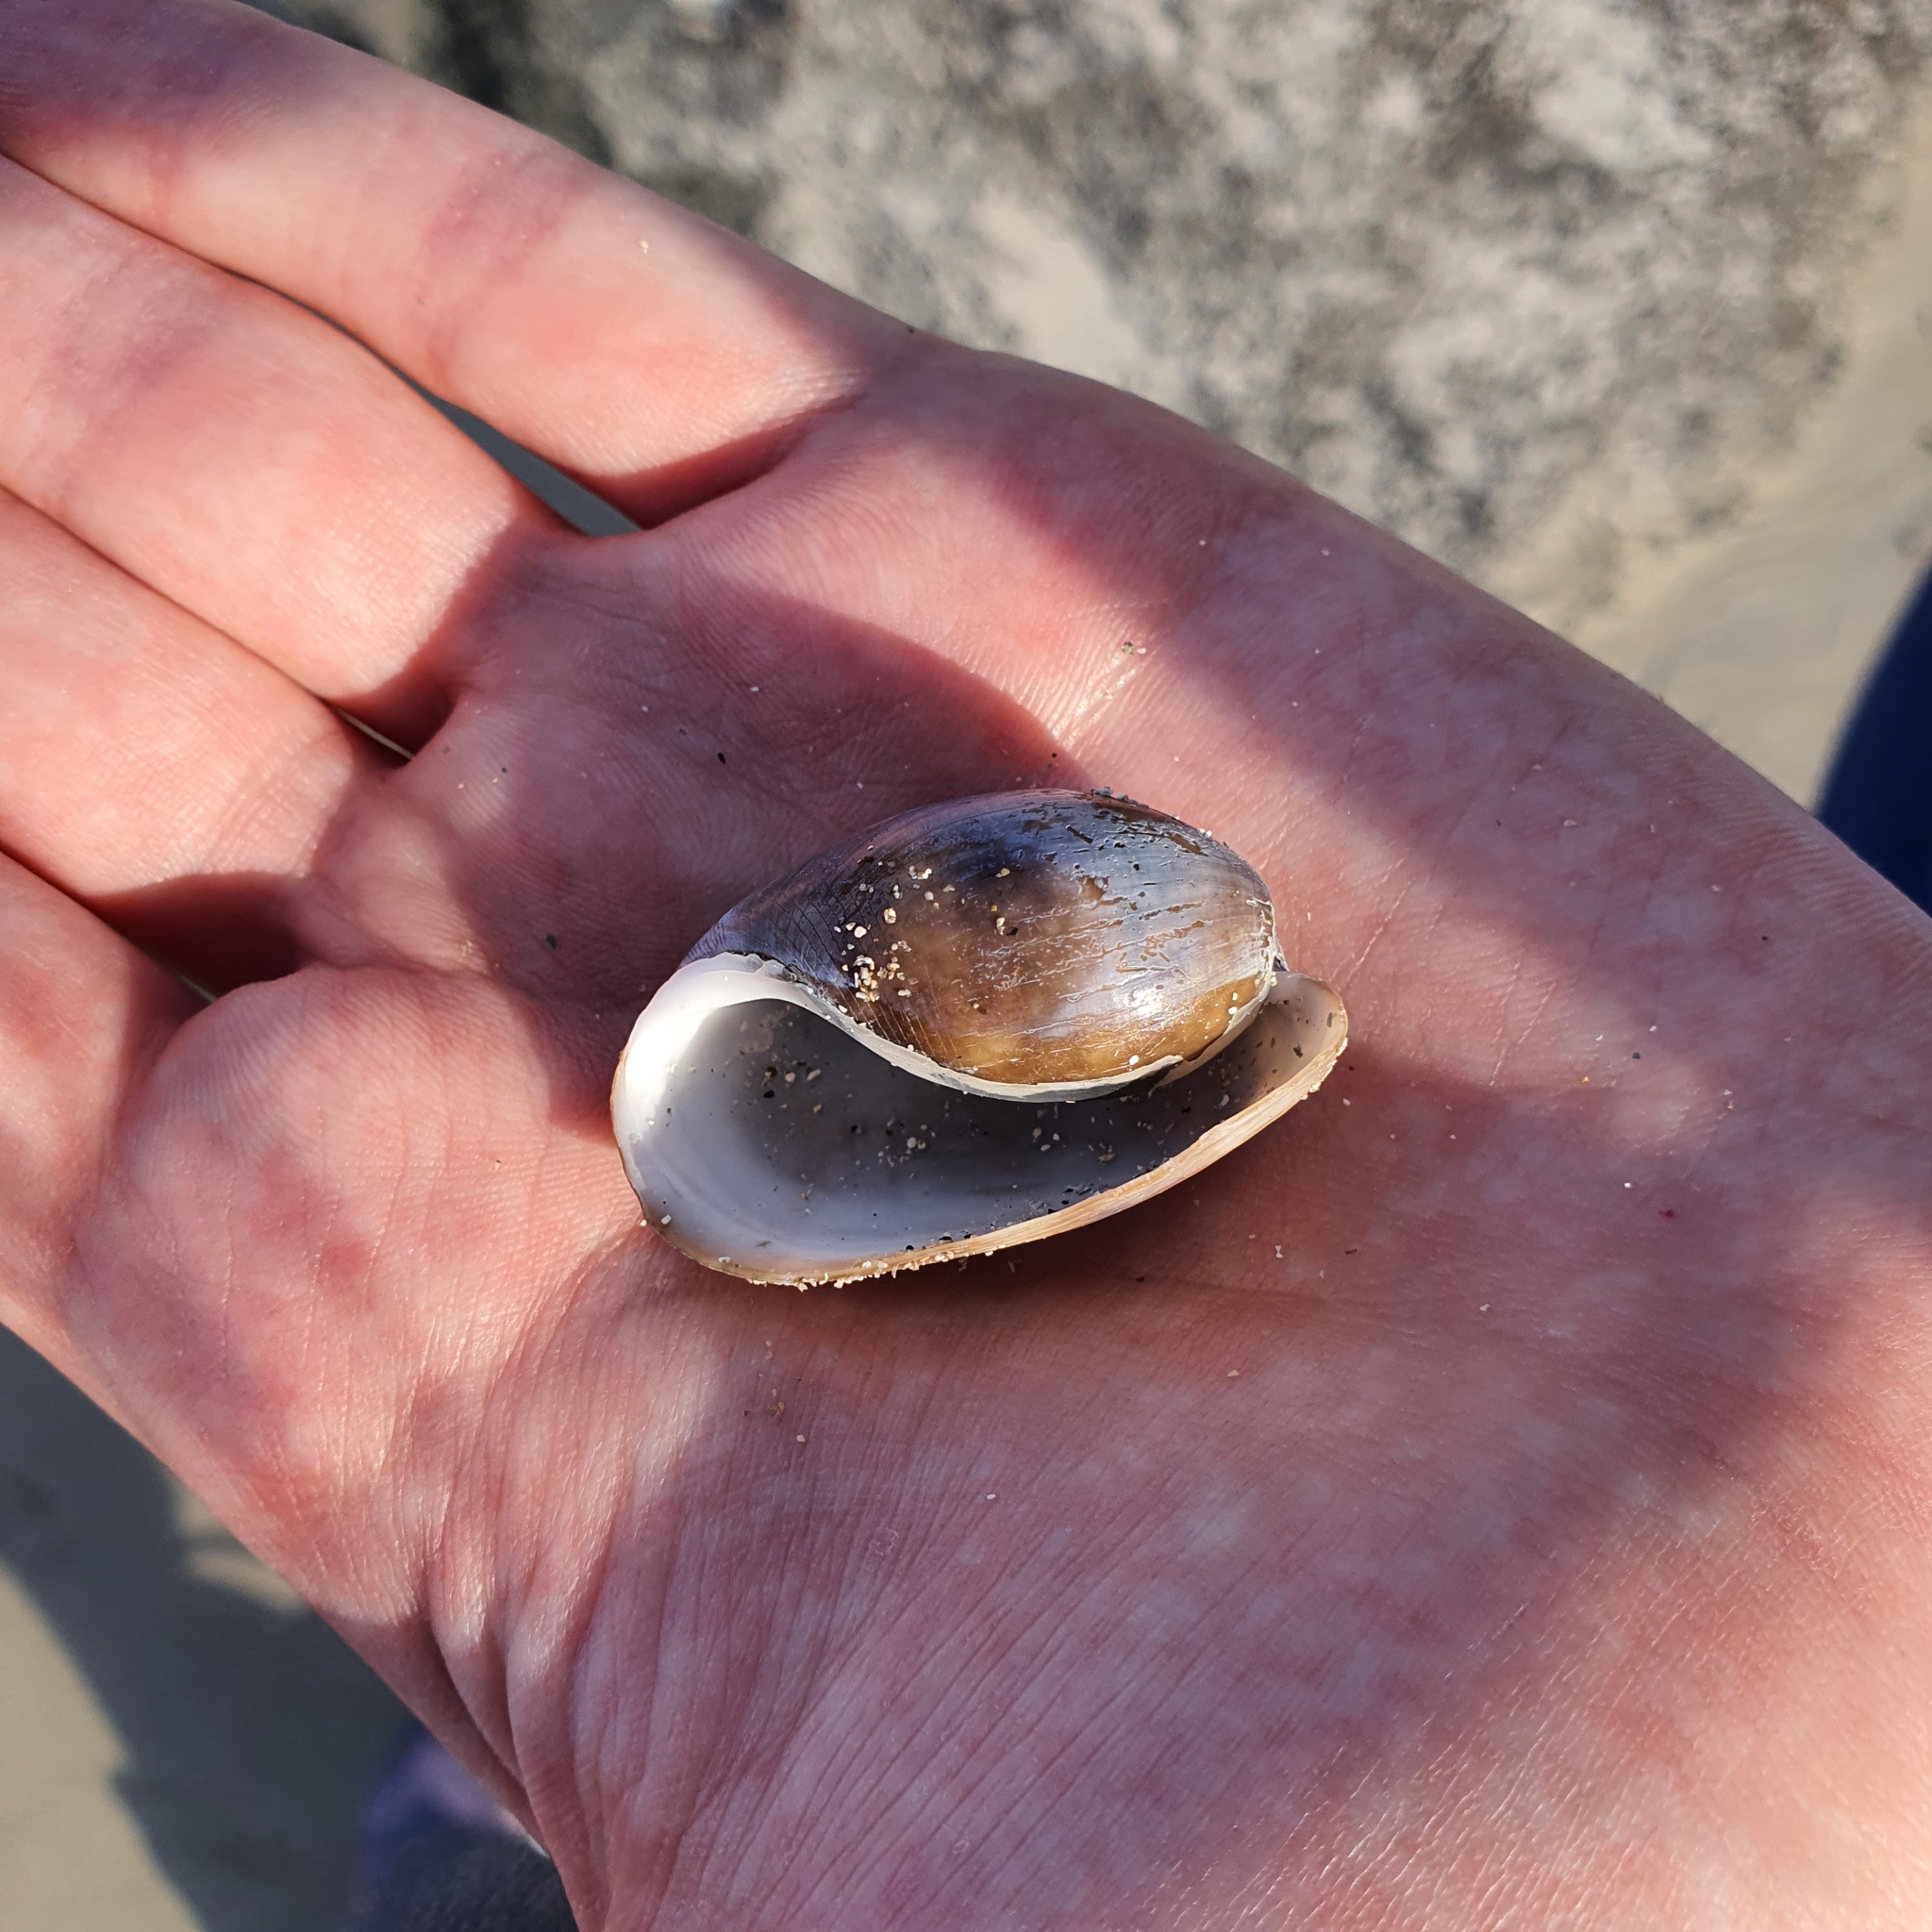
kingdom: Animalia
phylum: Mollusca
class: Gastropoda
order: Cephalaspidea
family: Bullidae
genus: Bulla
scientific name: Bulla quoyii
